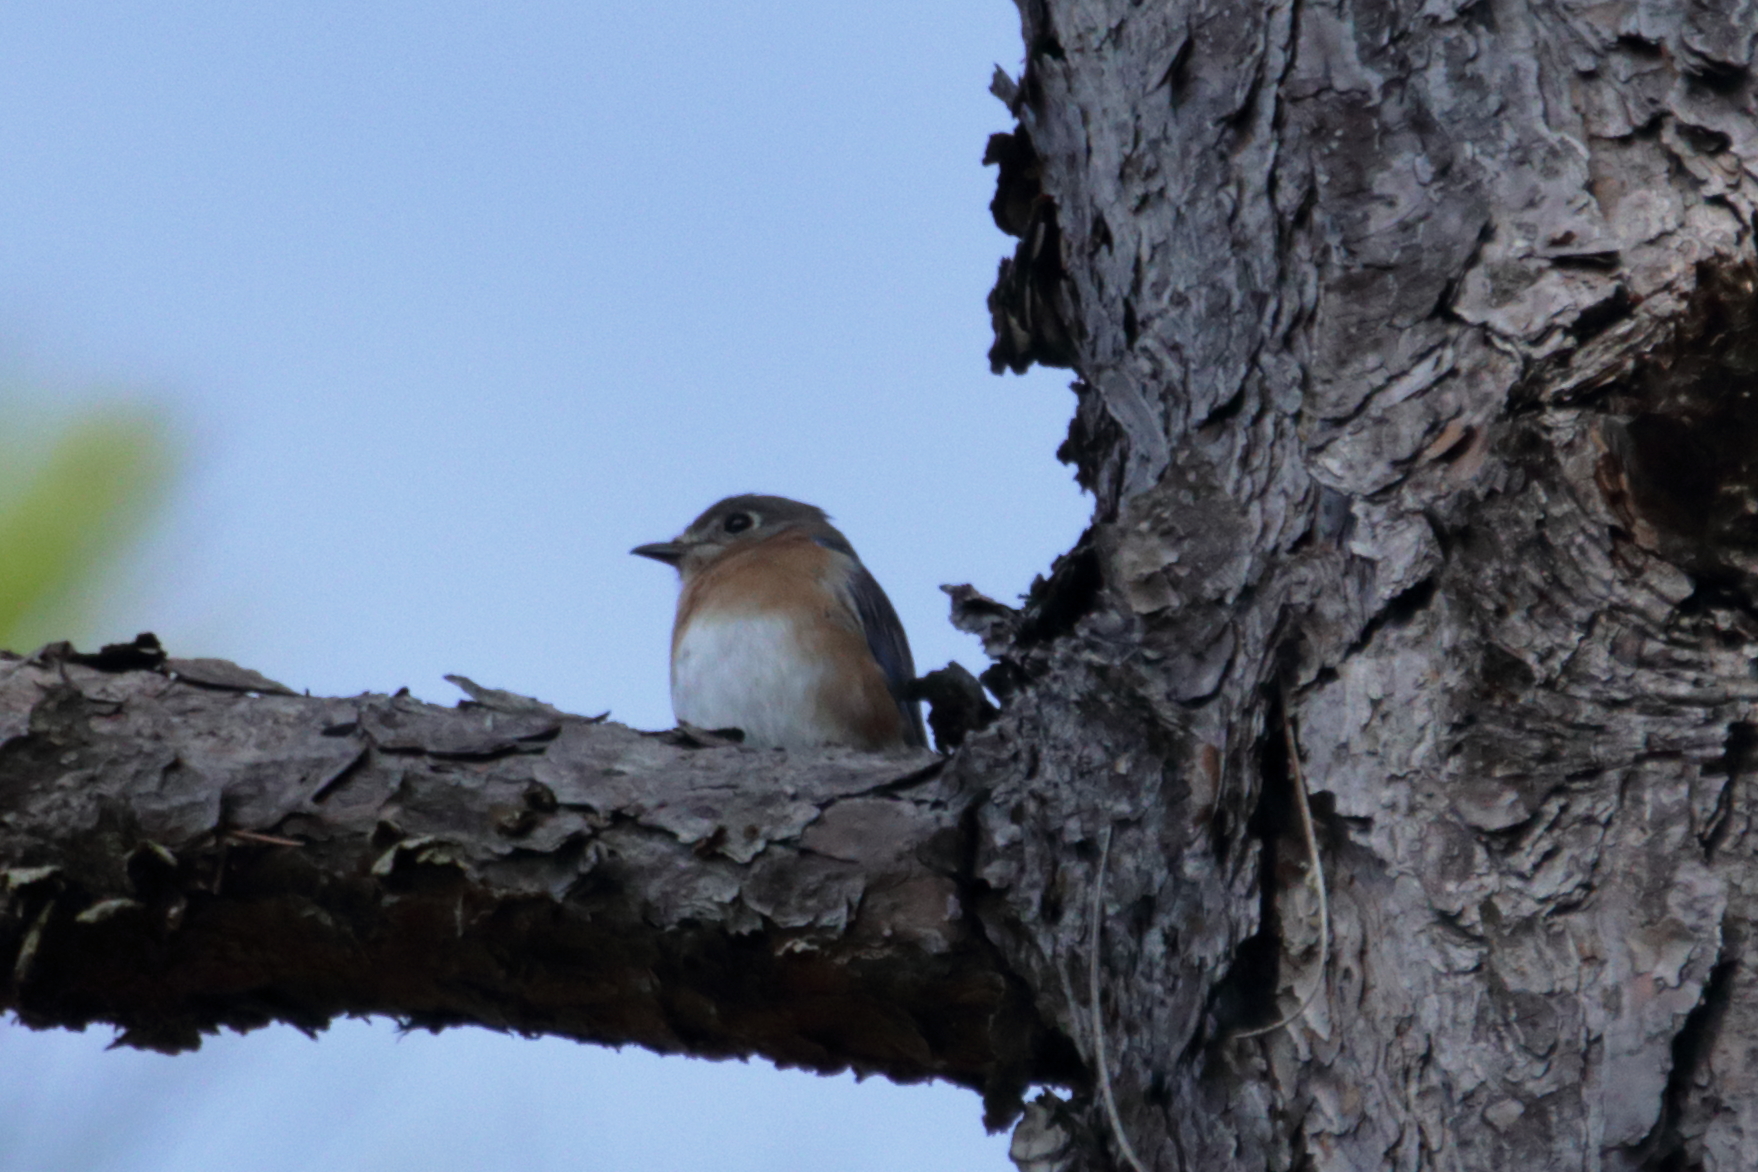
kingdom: Animalia
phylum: Chordata
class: Aves
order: Passeriformes
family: Turdidae
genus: Sialia
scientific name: Sialia sialis
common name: Eastern bluebird
